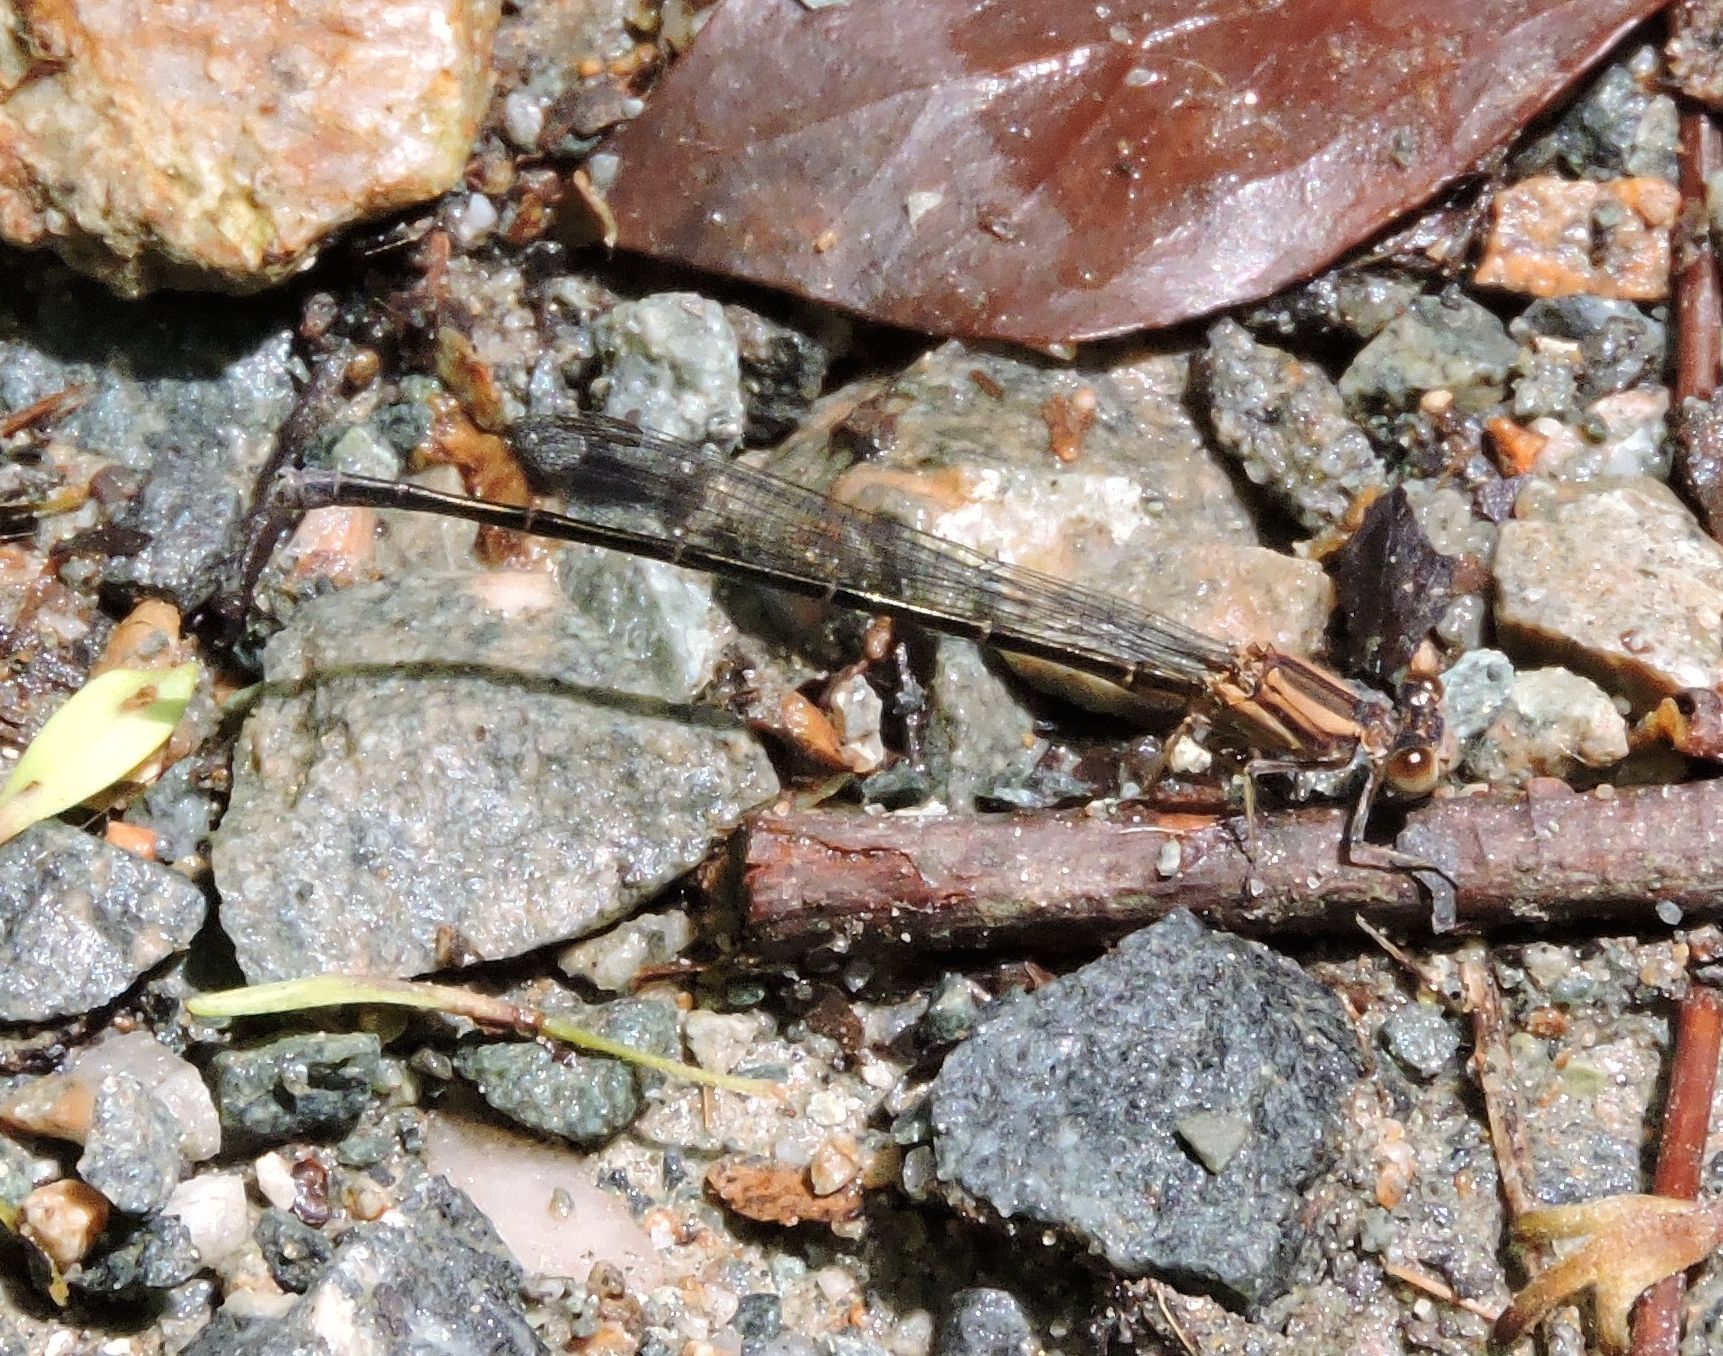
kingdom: Animalia
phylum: Arthropoda
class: Insecta
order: Odonata
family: Coenagrionidae
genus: Argia
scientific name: Argia moesta
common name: Powdered dancer
